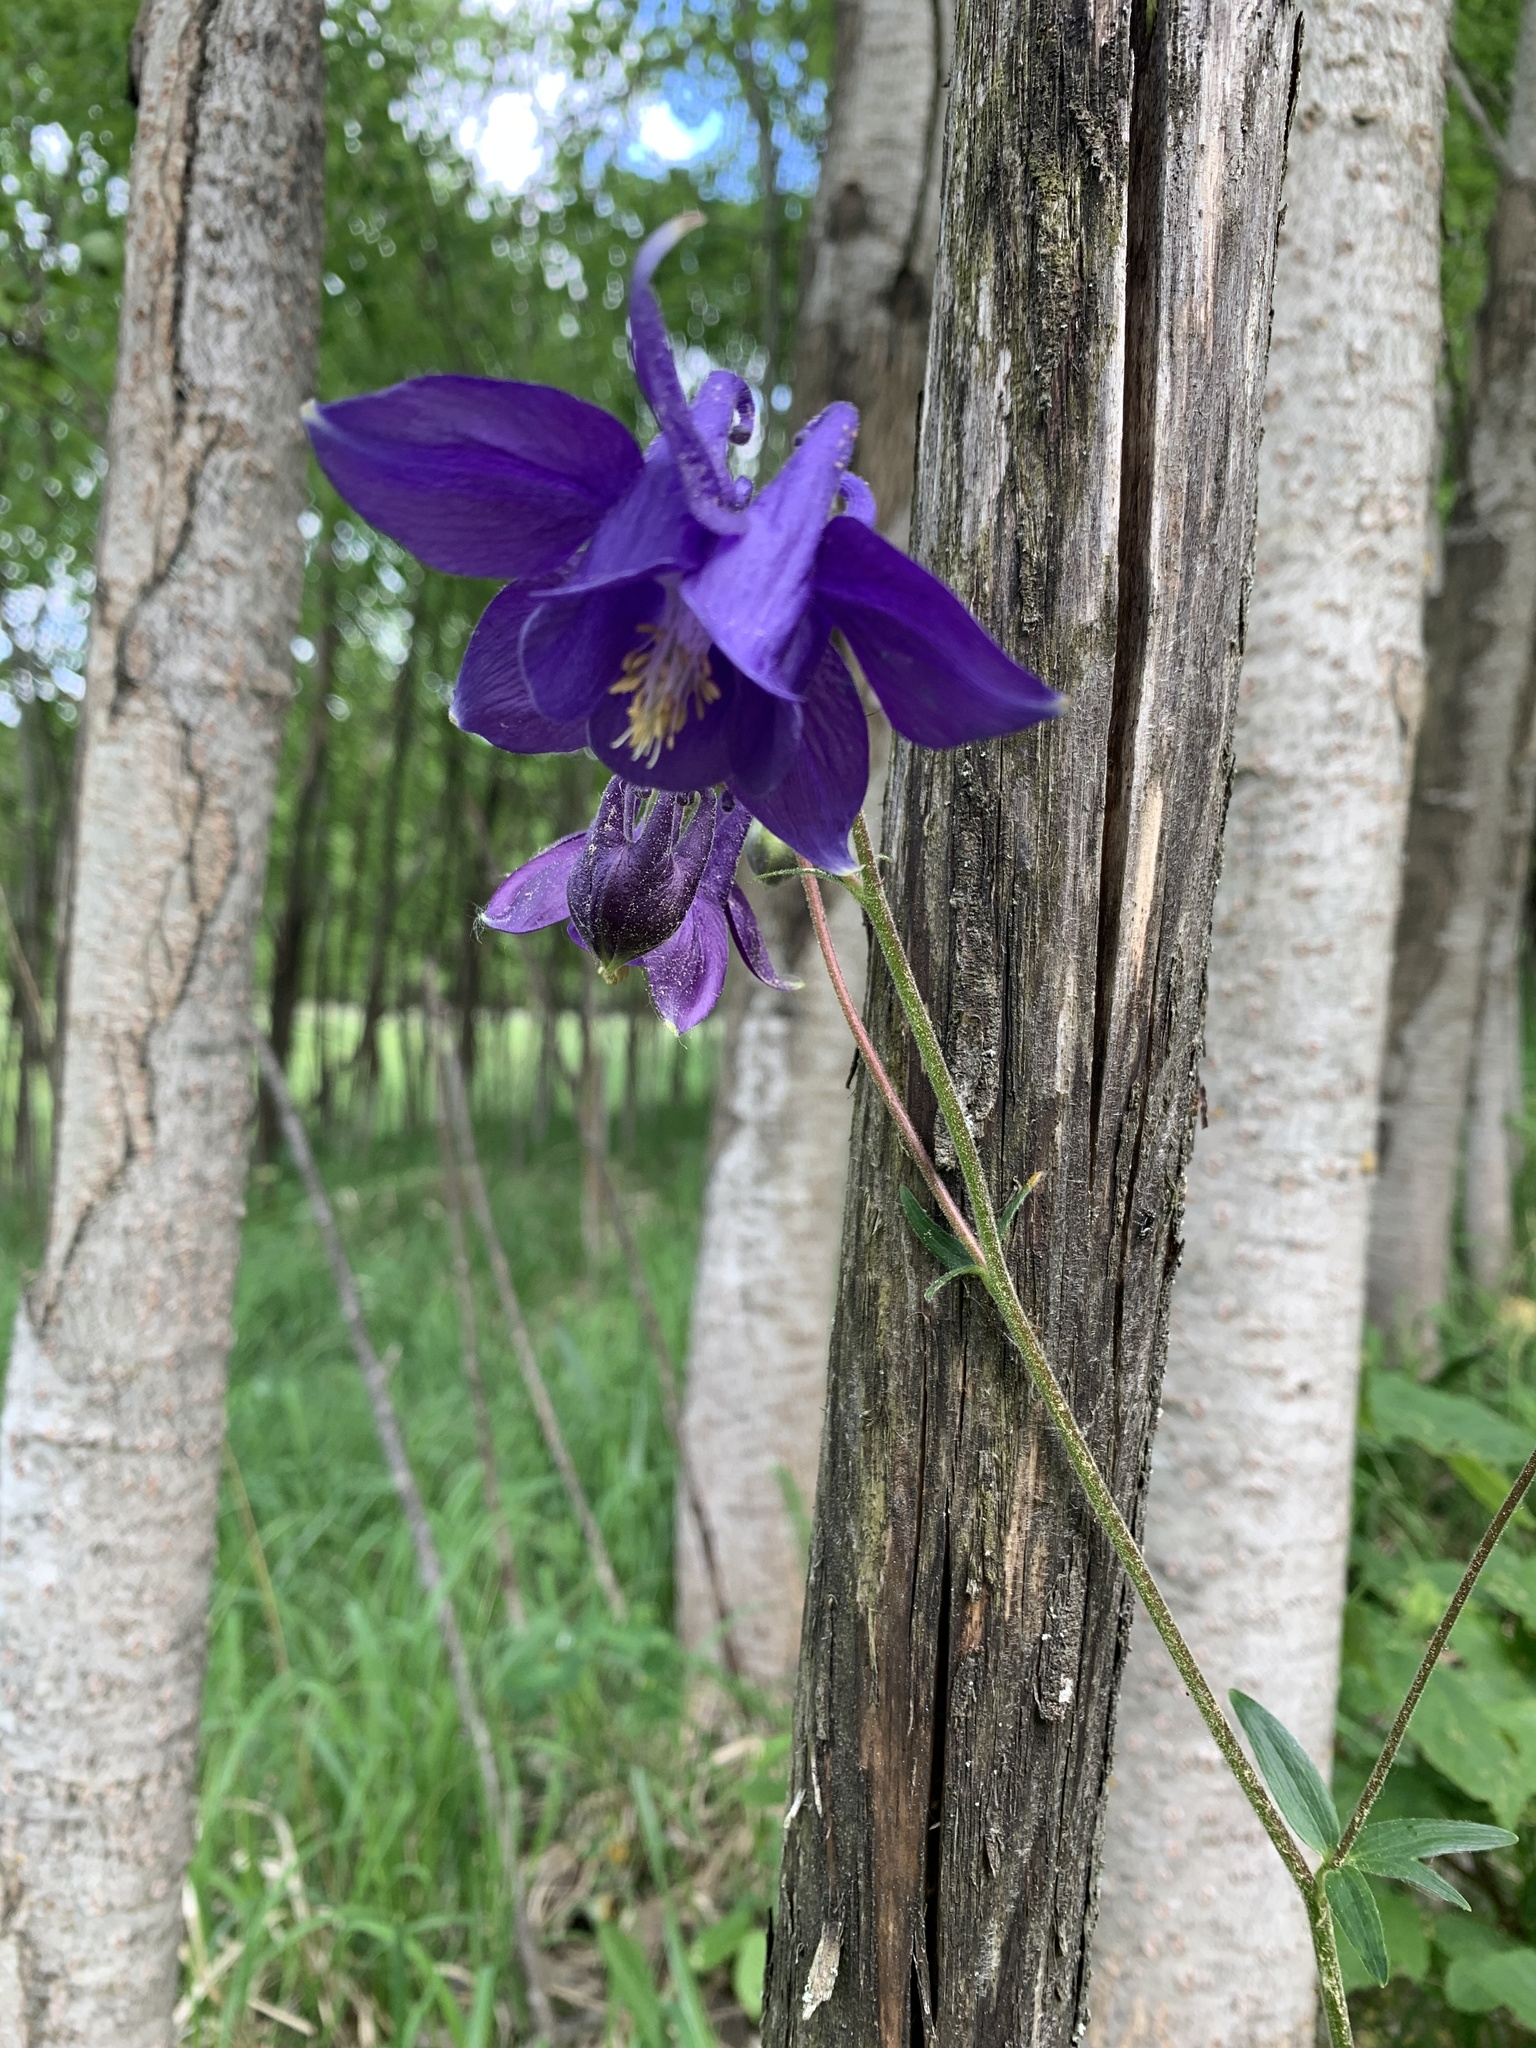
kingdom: Plantae
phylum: Tracheophyta
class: Magnoliopsida
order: Ranunculales
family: Ranunculaceae
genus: Aquilegia
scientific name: Aquilegia vulgaris
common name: Columbine
